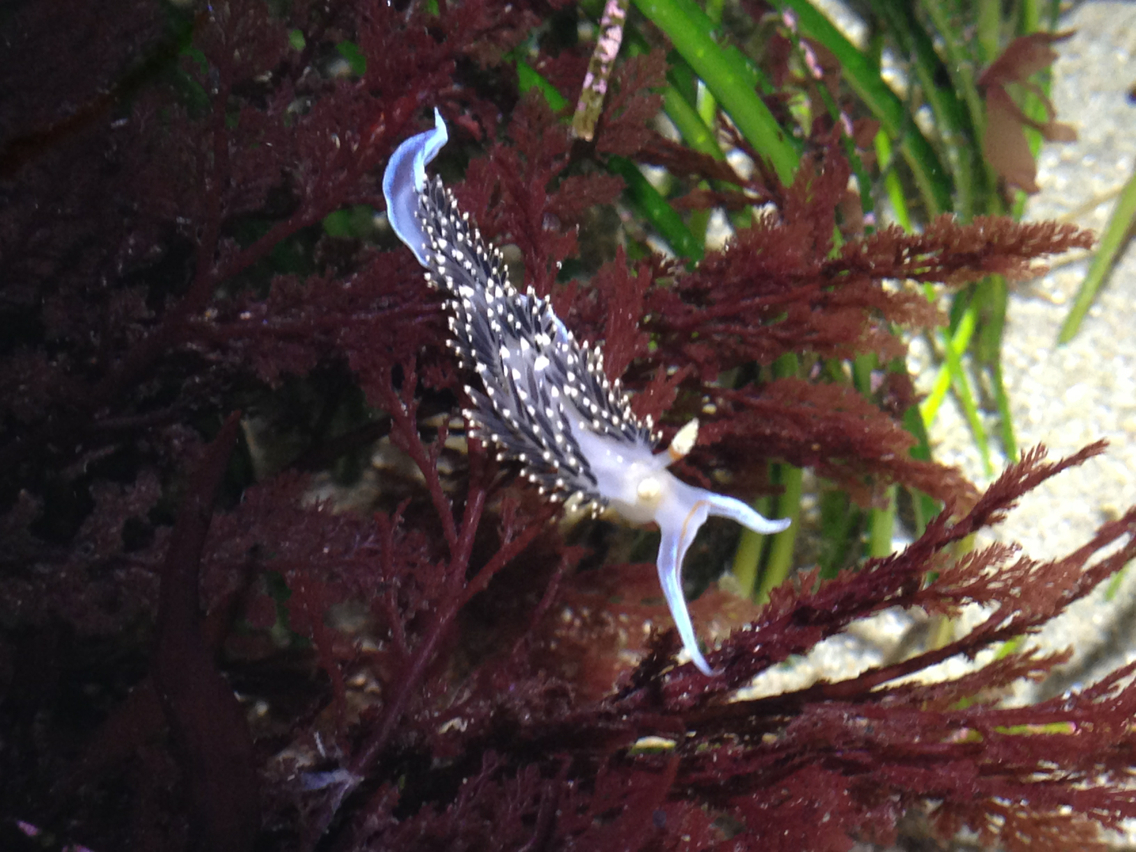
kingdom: Animalia
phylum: Mollusca
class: Gastropoda
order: Nudibranchia
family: Facelinidae
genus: Phidiana
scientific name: Phidiana hiltoni
